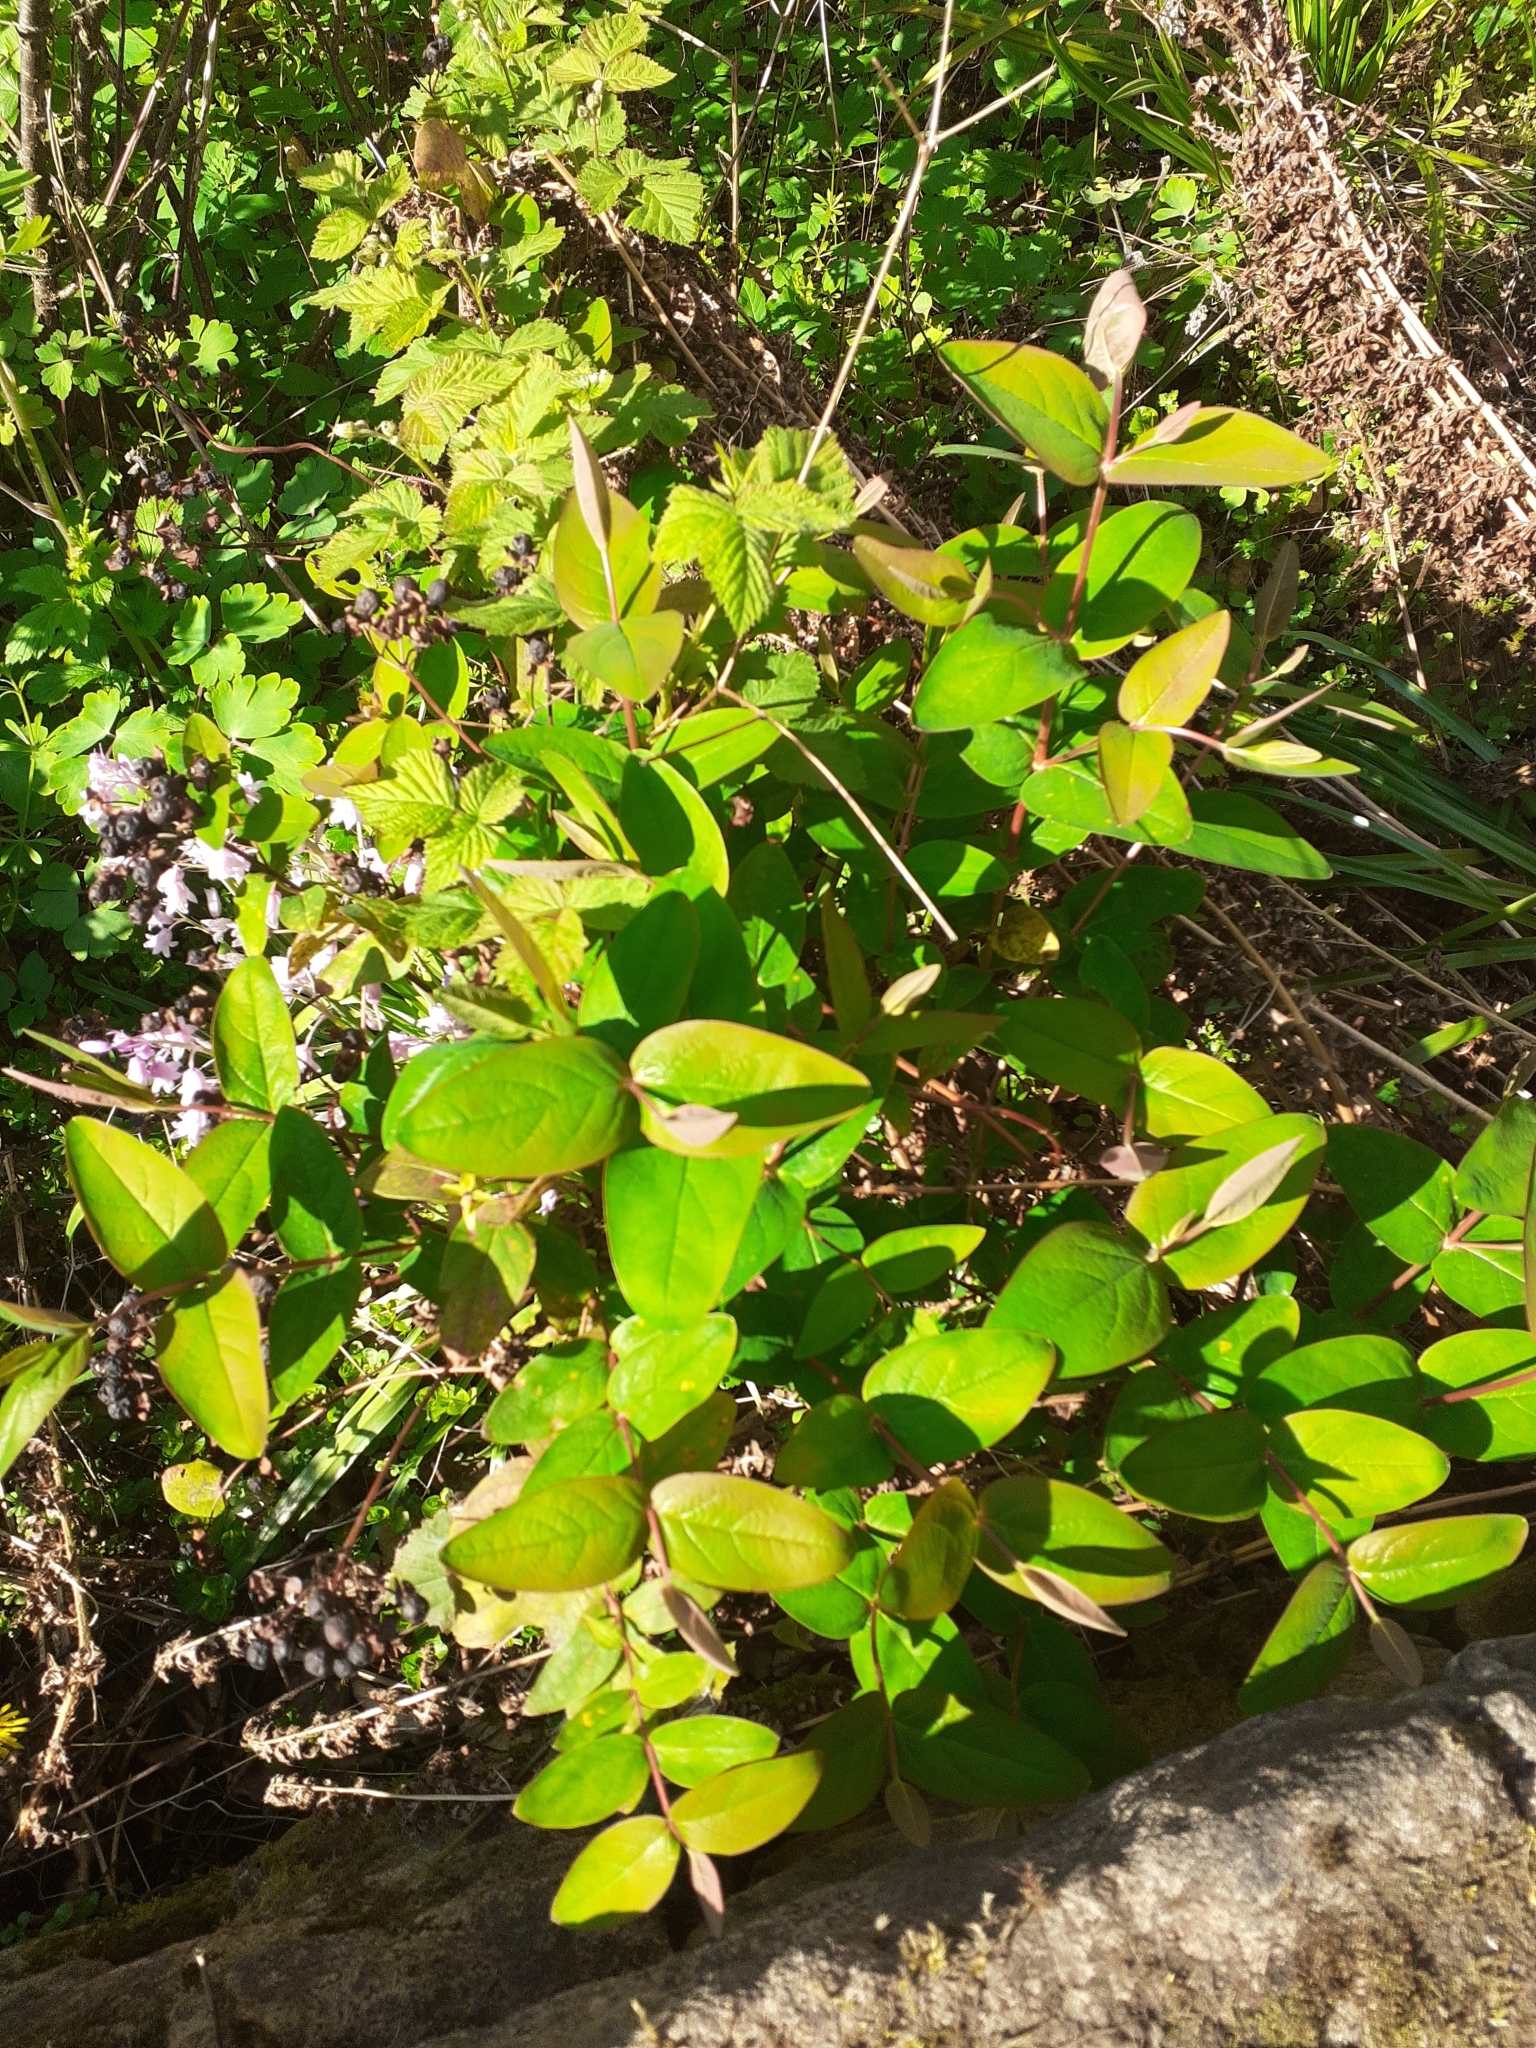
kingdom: Plantae
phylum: Tracheophyta
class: Magnoliopsida
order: Malpighiales
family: Hypericaceae
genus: Hypericum
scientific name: Hypericum inodorum
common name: Tall tutsan
